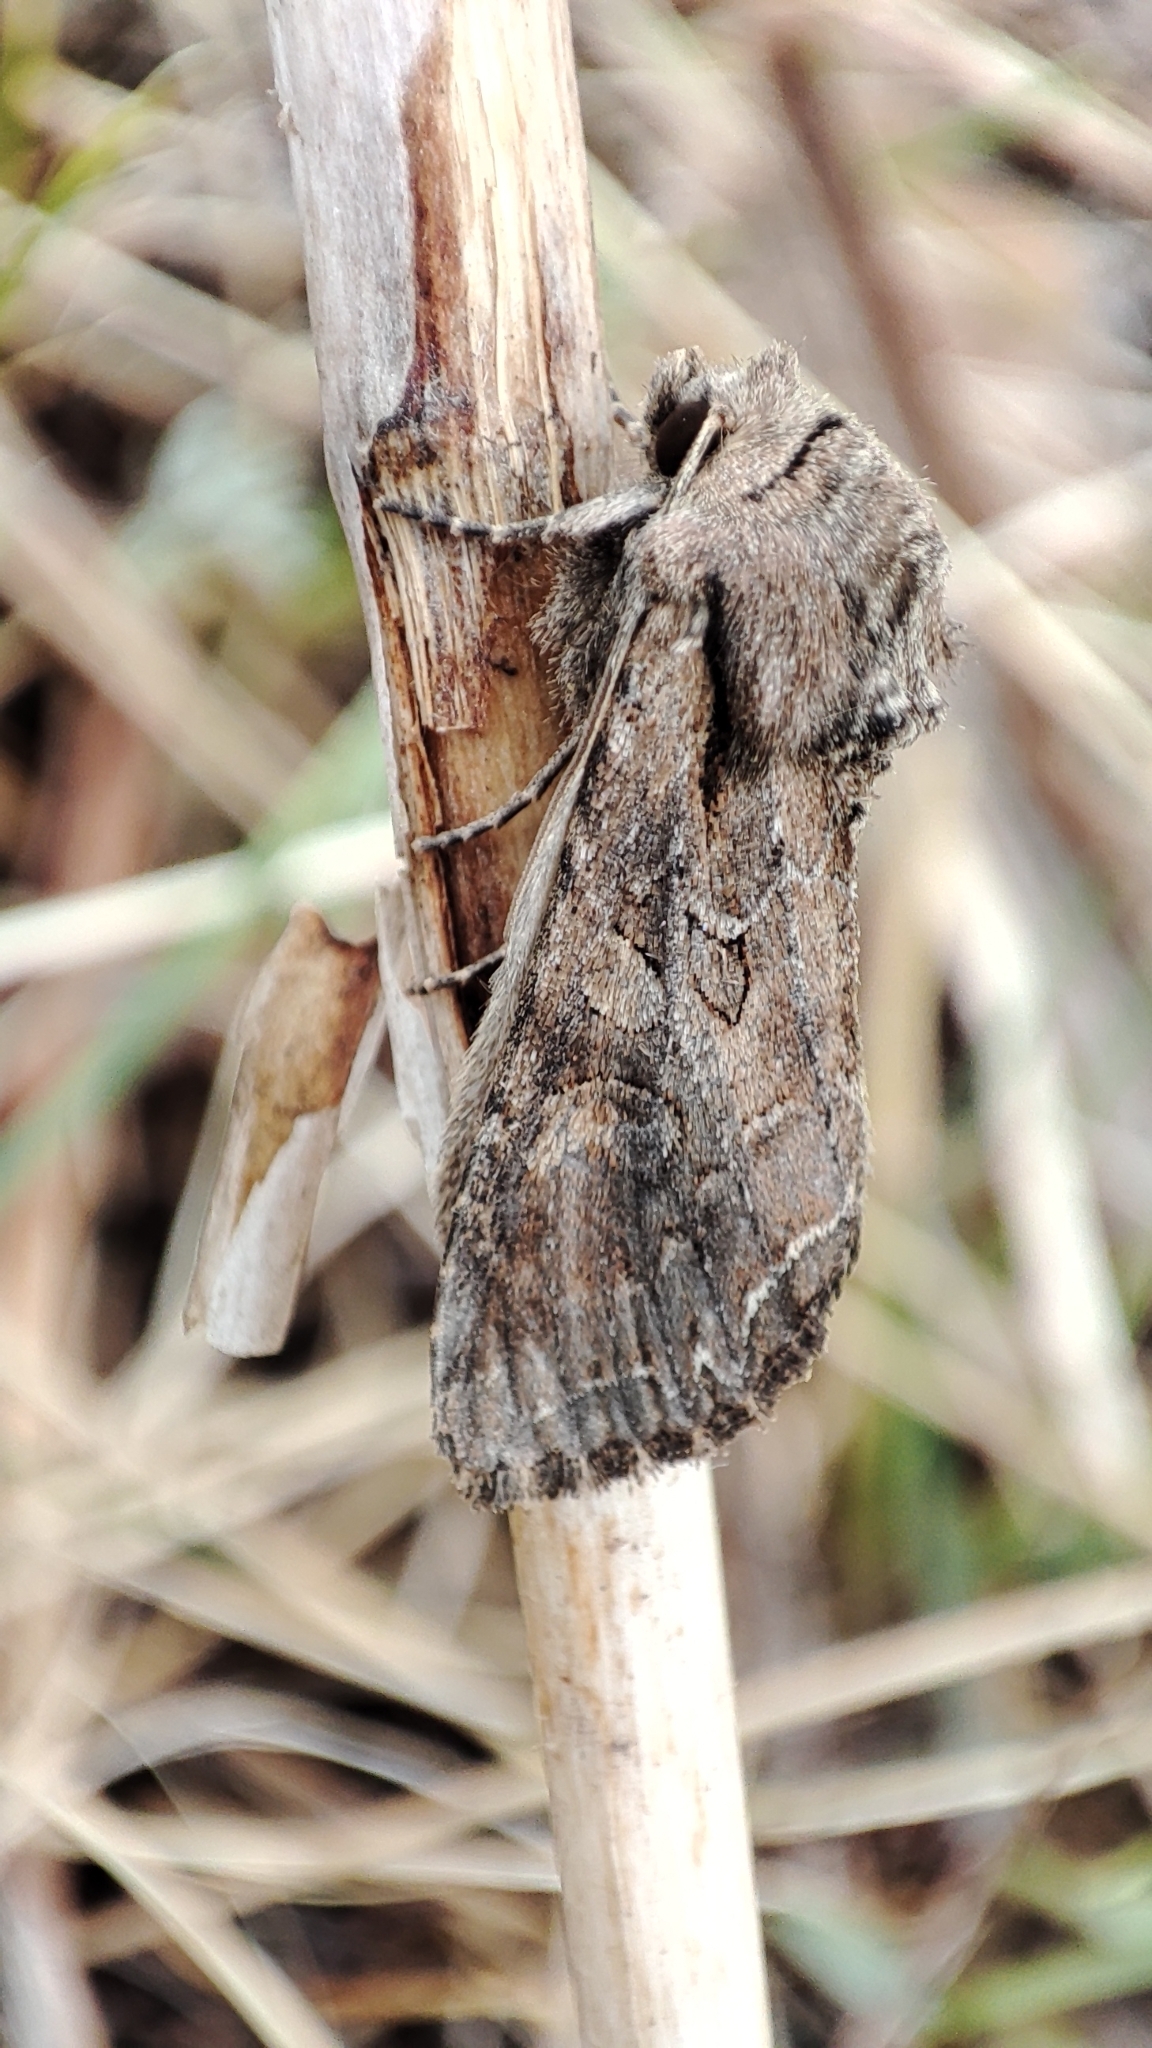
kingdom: Animalia
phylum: Arthropoda
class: Insecta
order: Lepidoptera
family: Noctuidae
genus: Lacanobia
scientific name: Lacanobia suasa
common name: Dog's tooth
